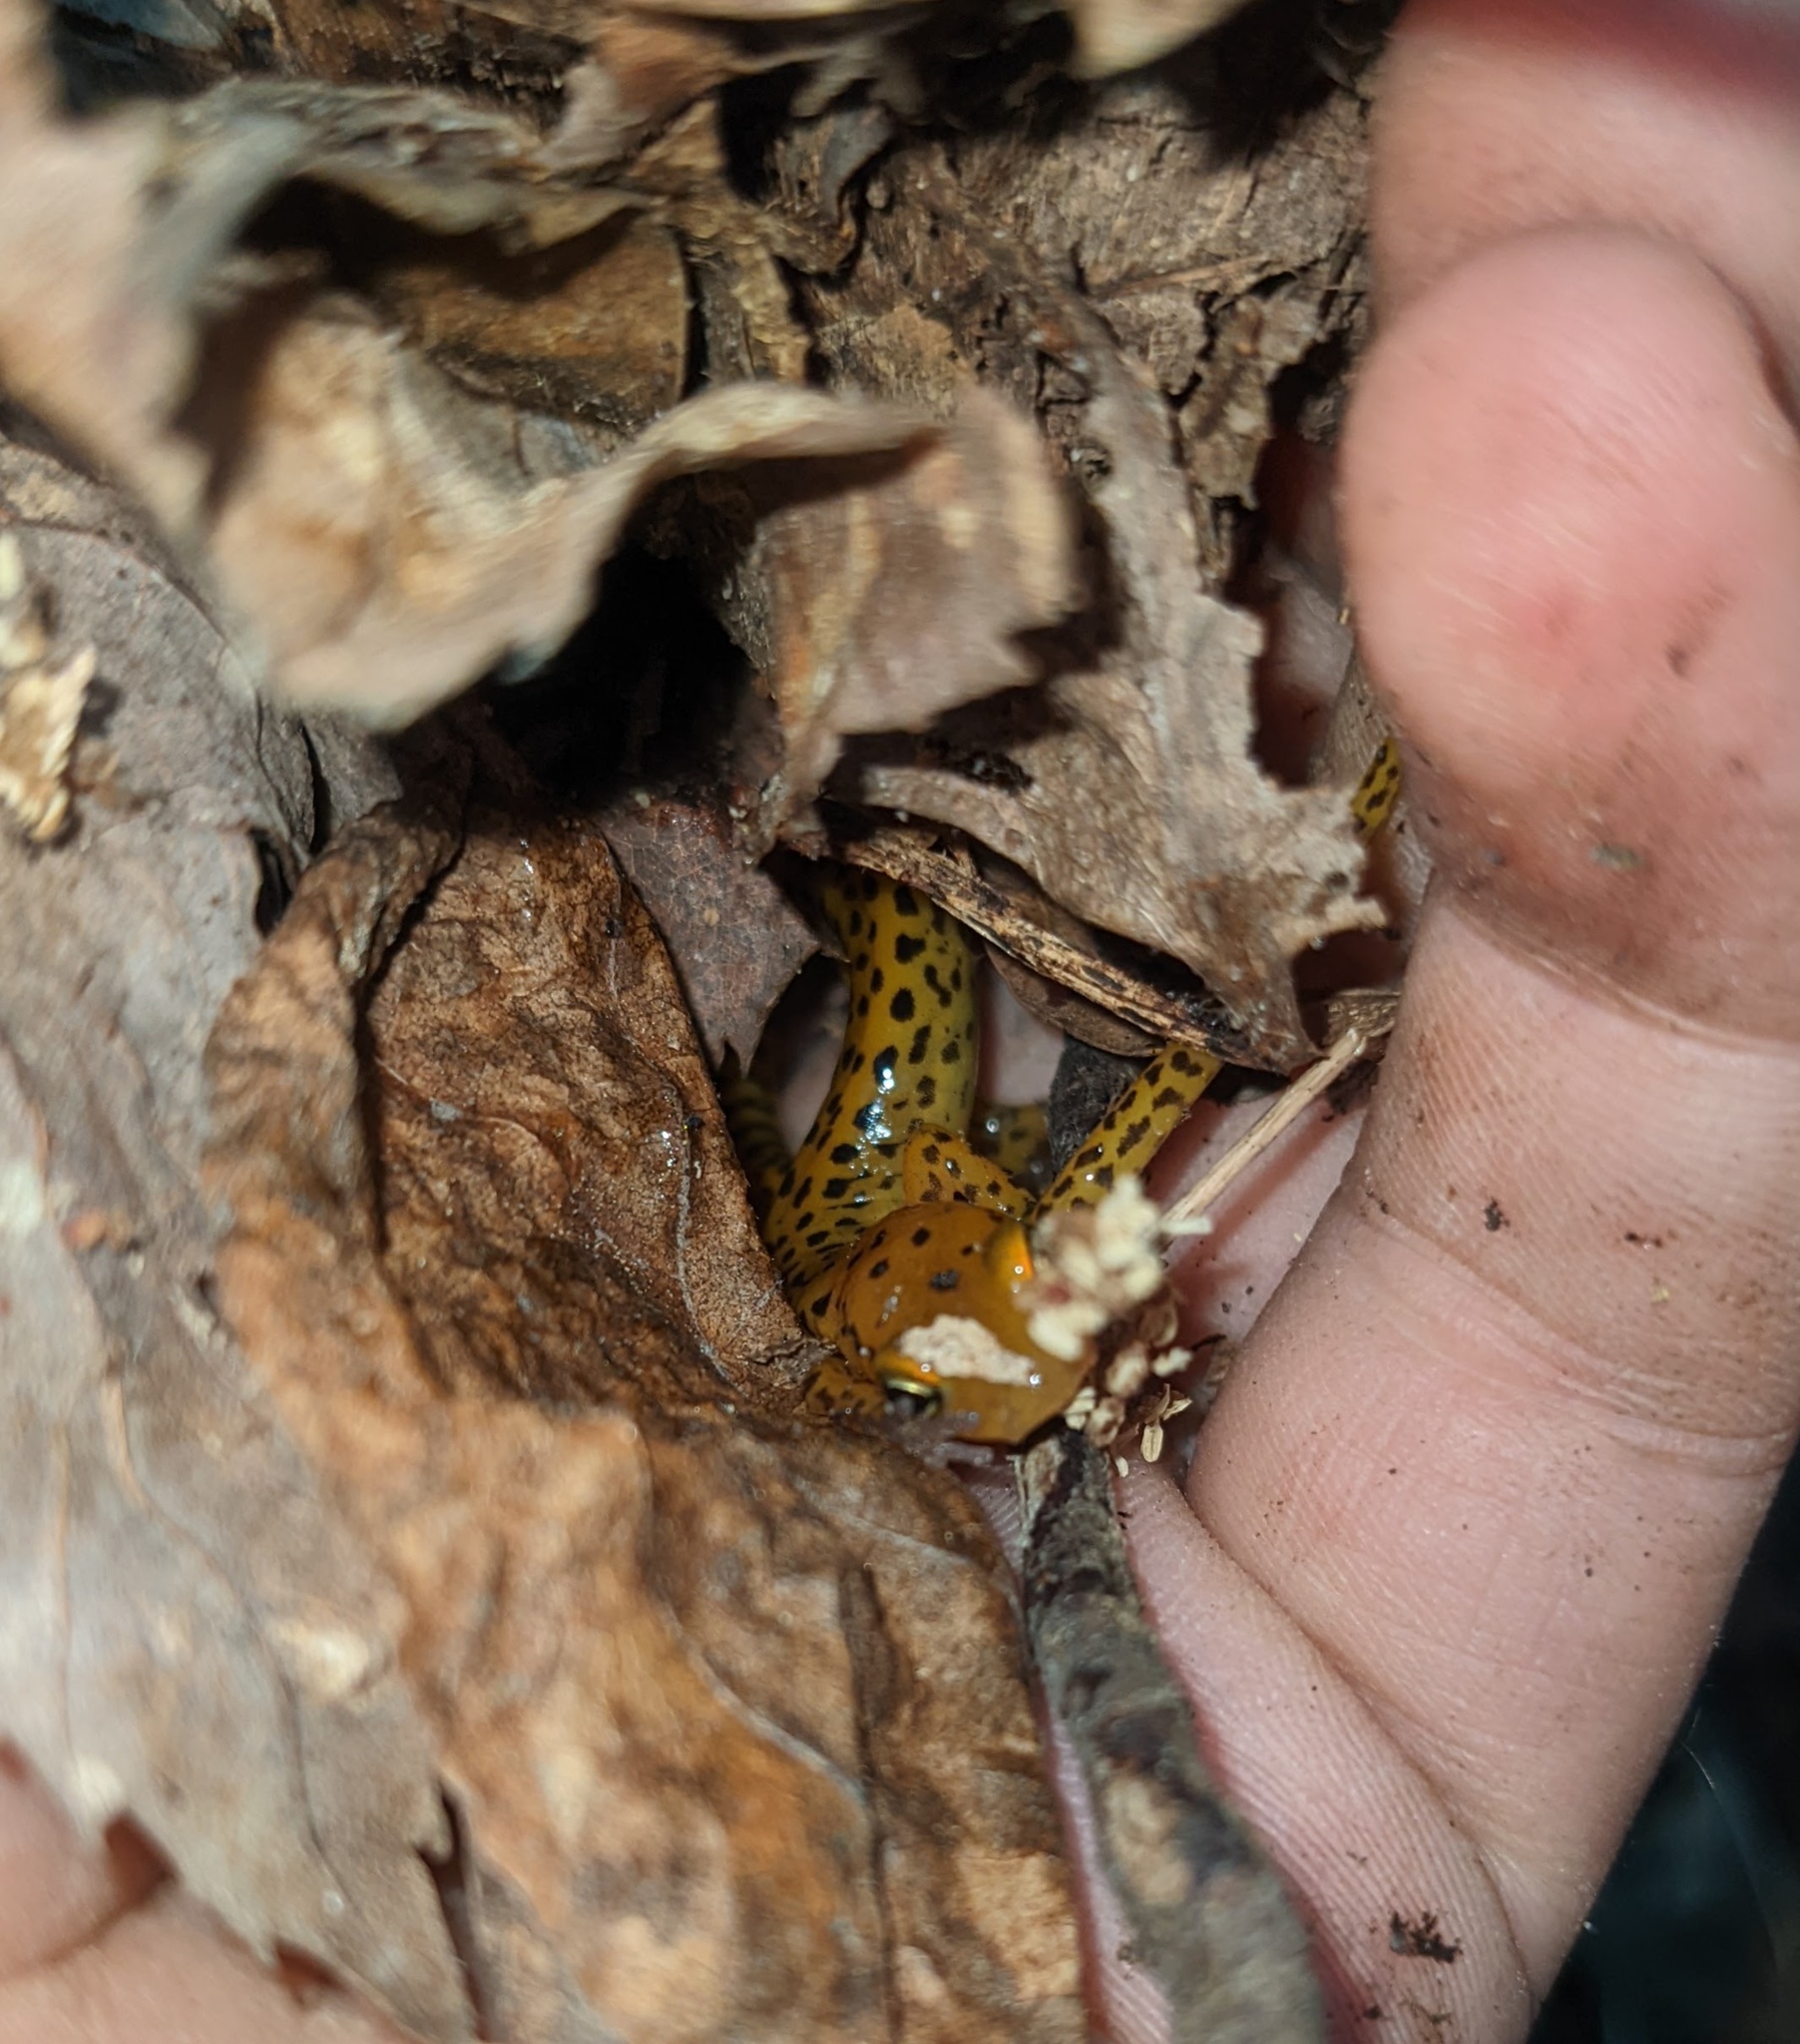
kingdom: Animalia
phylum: Chordata
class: Amphibia
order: Caudata
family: Plethodontidae
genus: Eurycea
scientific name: Eurycea longicauda
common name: Long-tailed salamander
